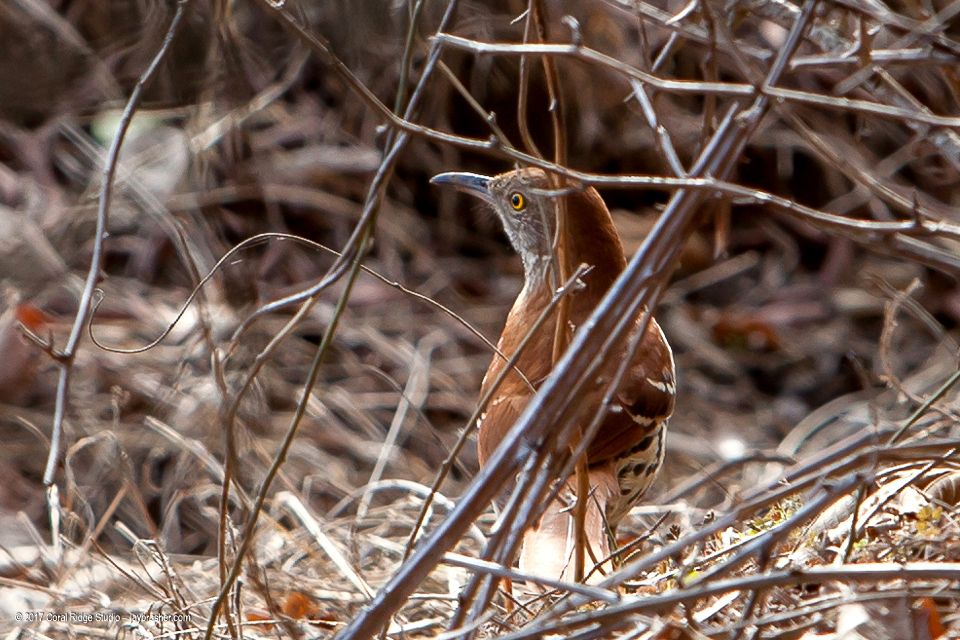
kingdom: Animalia
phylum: Chordata
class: Aves
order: Passeriformes
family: Mimidae
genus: Toxostoma
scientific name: Toxostoma rufum
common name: Brown thrasher
